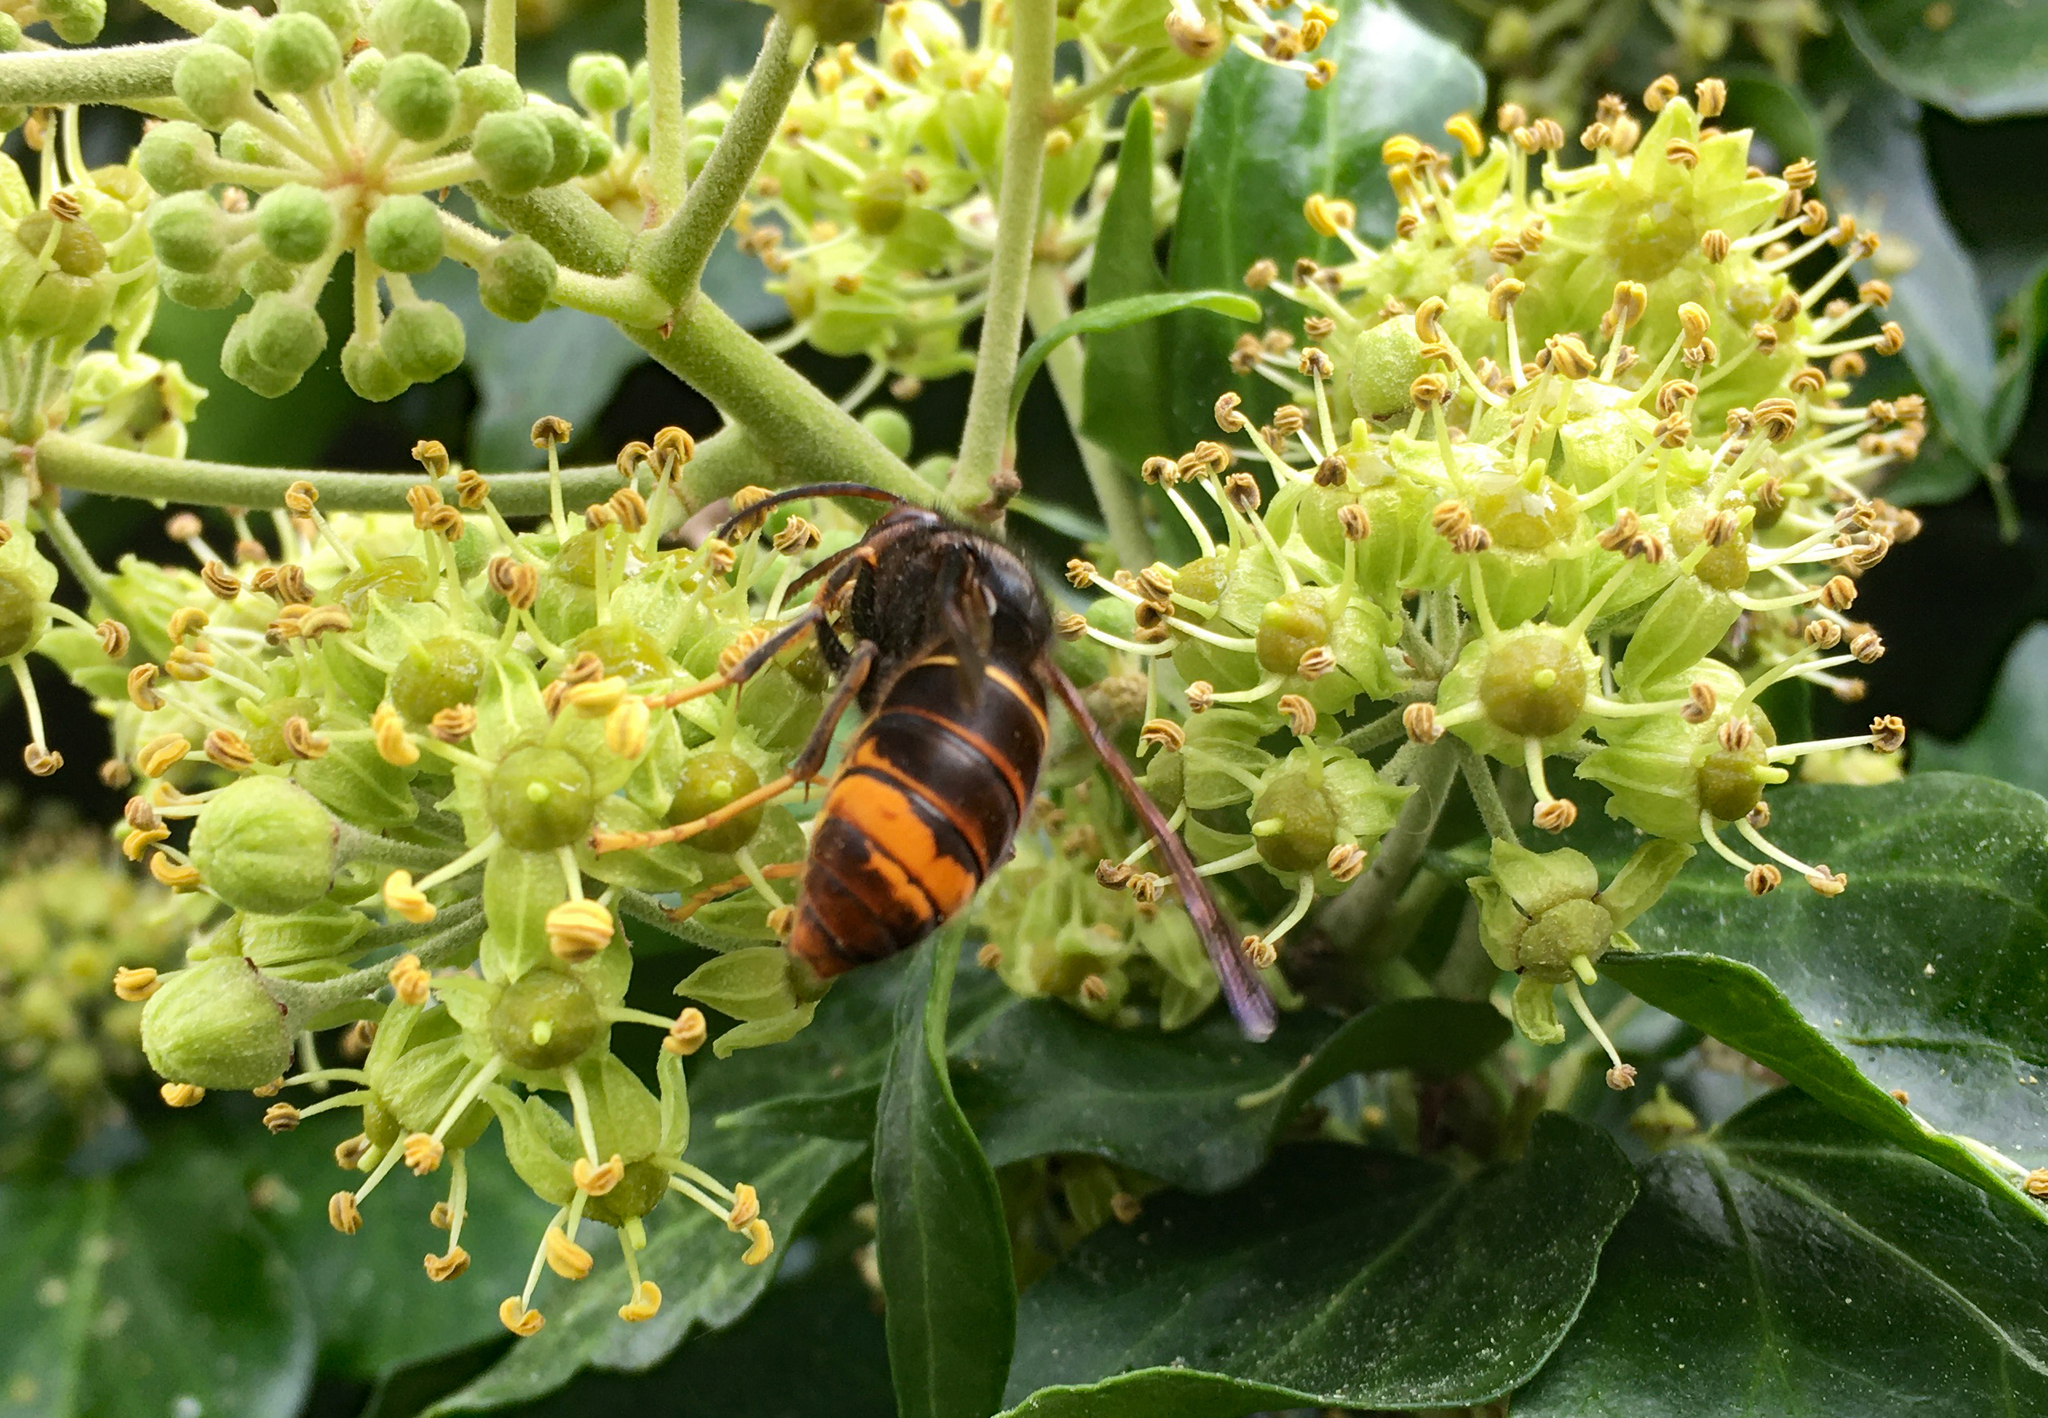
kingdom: Animalia
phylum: Arthropoda
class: Insecta
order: Hymenoptera
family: Vespidae
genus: Vespa
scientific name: Vespa velutina
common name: Asian hornet
